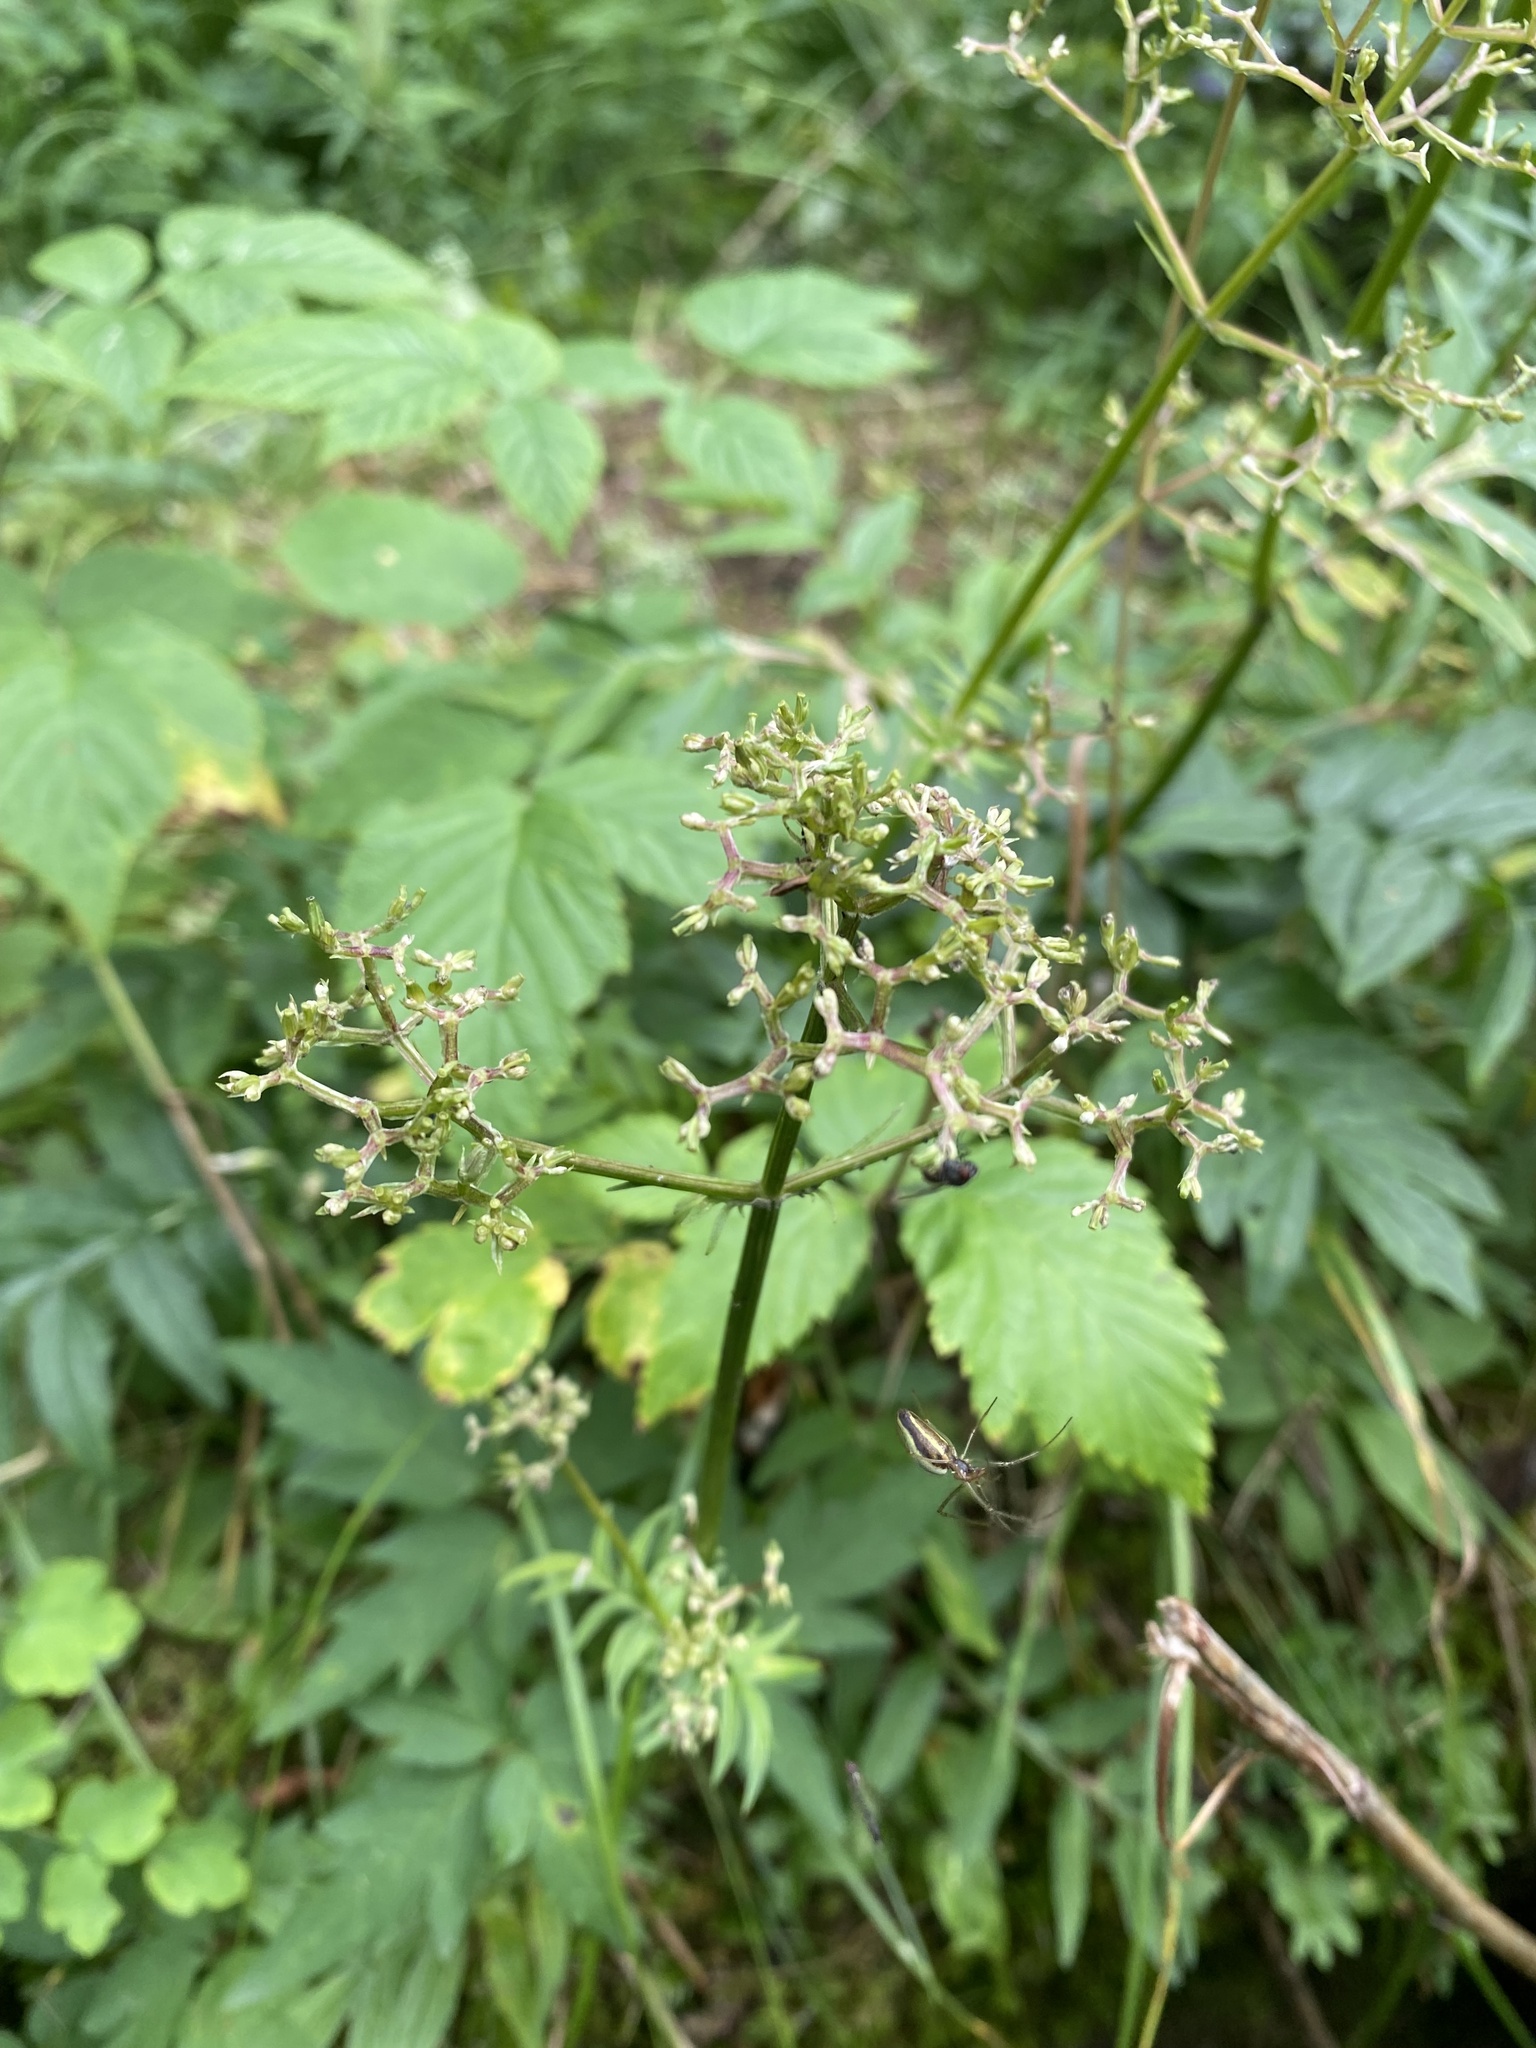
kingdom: Plantae
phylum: Tracheophyta
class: Magnoliopsida
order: Dipsacales
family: Caprifoliaceae
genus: Valeriana
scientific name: Valeriana officinalis
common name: Common valerian
